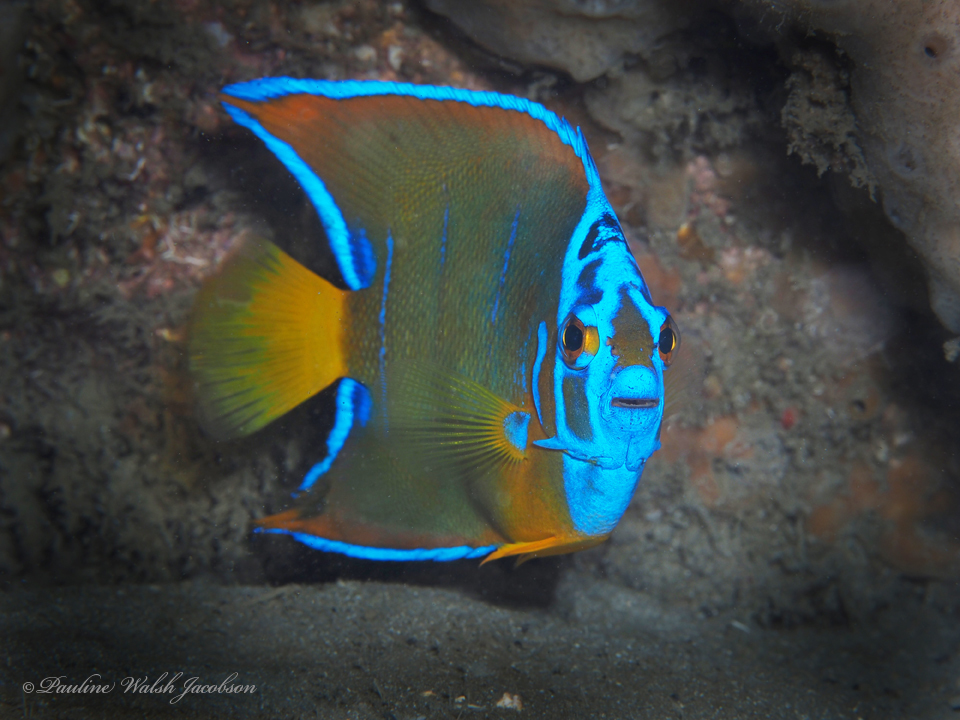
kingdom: Animalia
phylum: Chordata
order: Perciformes
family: Pomacanthidae
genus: Holacanthus
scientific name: Holacanthus ciliaris
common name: Queen angelfish
